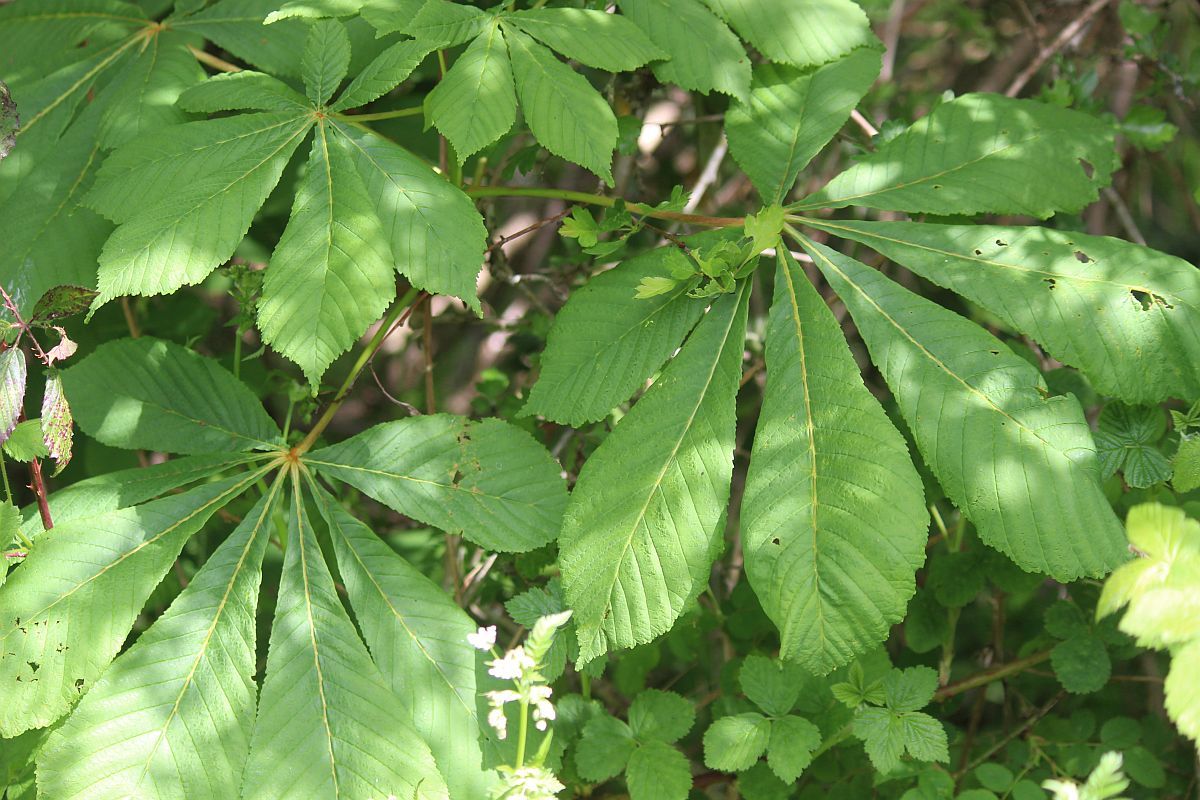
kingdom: Plantae
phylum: Tracheophyta
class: Magnoliopsida
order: Sapindales
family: Sapindaceae
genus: Aesculus
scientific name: Aesculus hippocastanum
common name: Horse-chestnut
